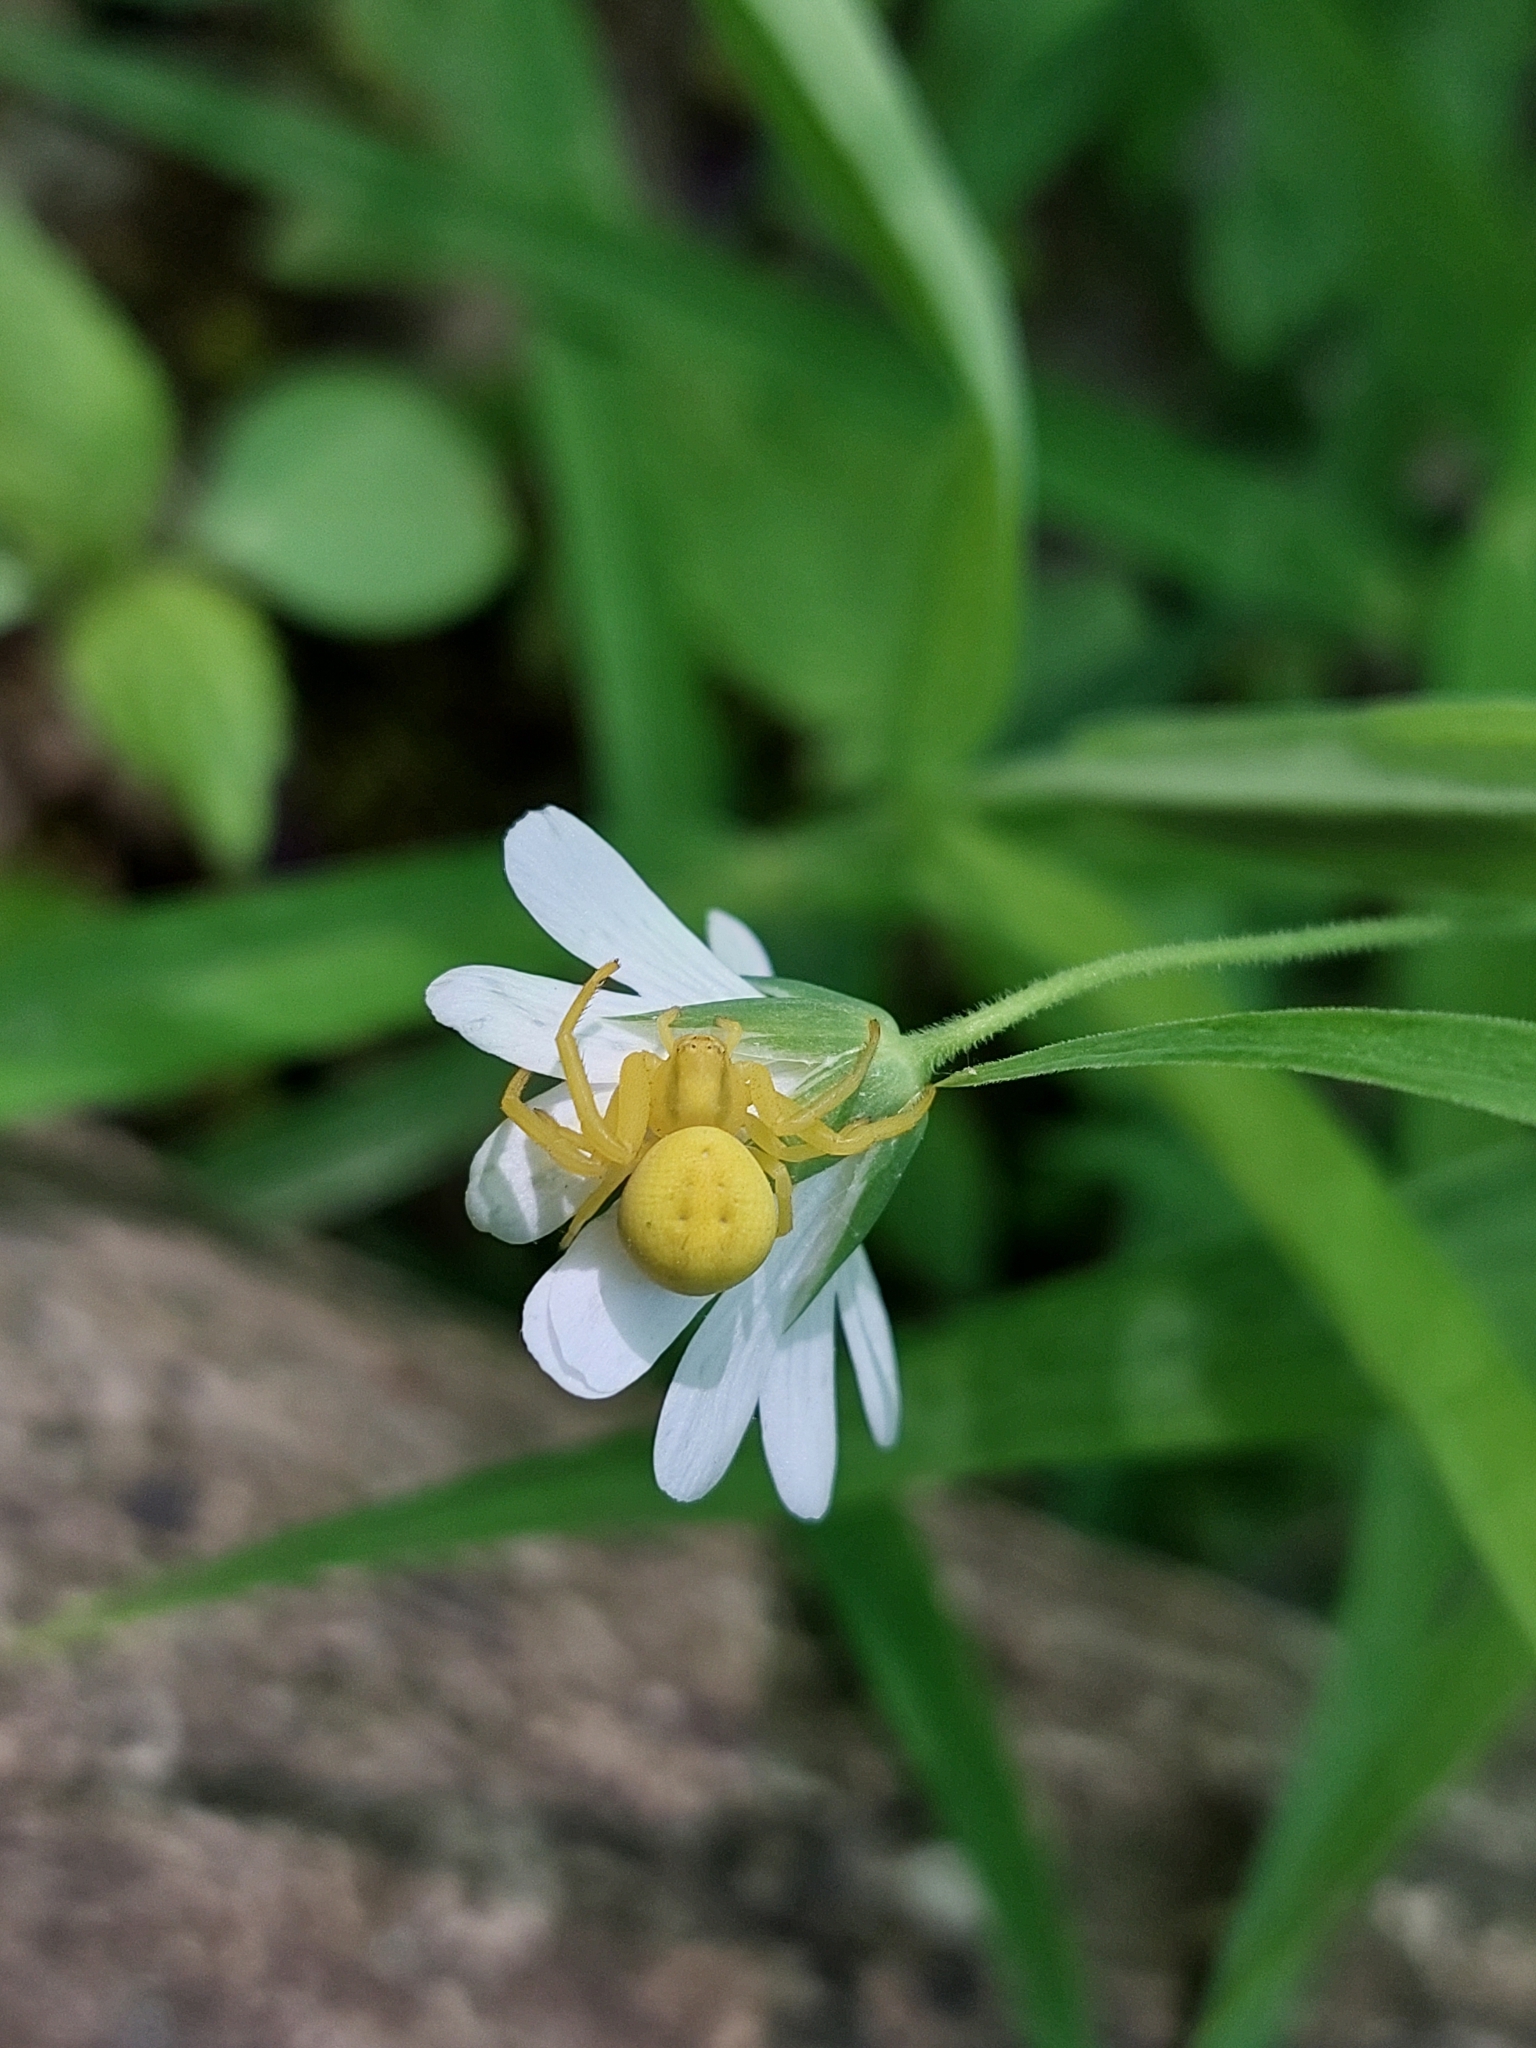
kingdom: Animalia
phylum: Arthropoda
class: Arachnida
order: Araneae
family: Thomisidae
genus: Misumena
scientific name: Misumena vatia
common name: Goldenrod crab spider
